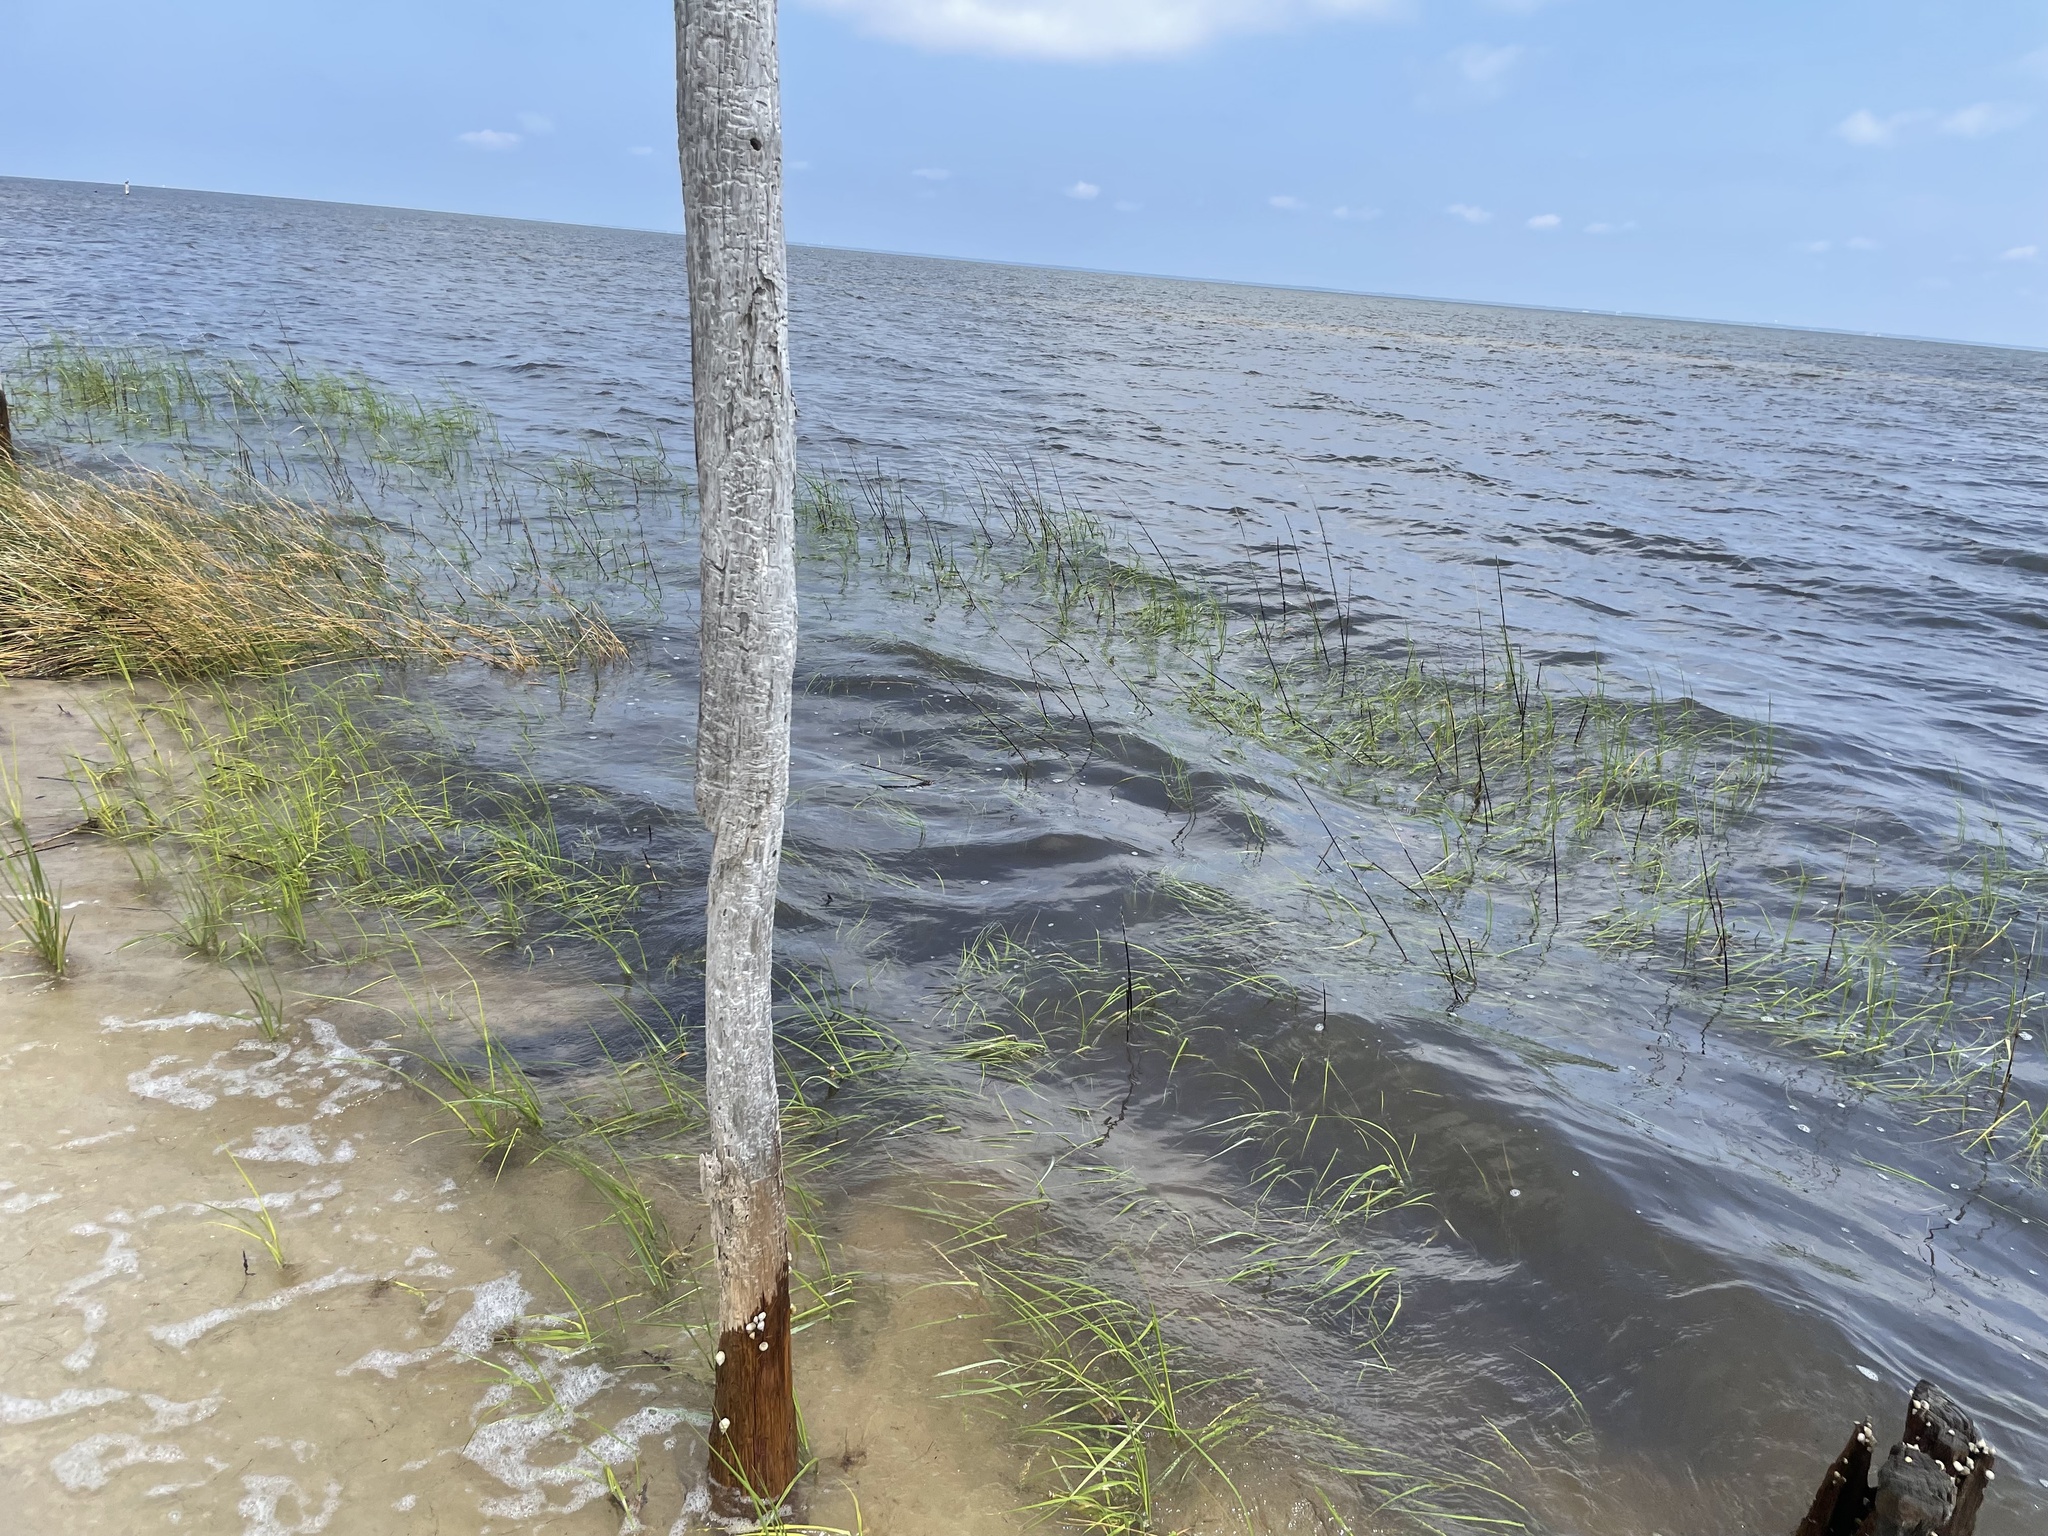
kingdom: Plantae
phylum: Tracheophyta
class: Liliopsida
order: Poales
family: Poaceae
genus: Sporobolus
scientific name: Sporobolus alterniflorus
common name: Atlantic cordgrass
